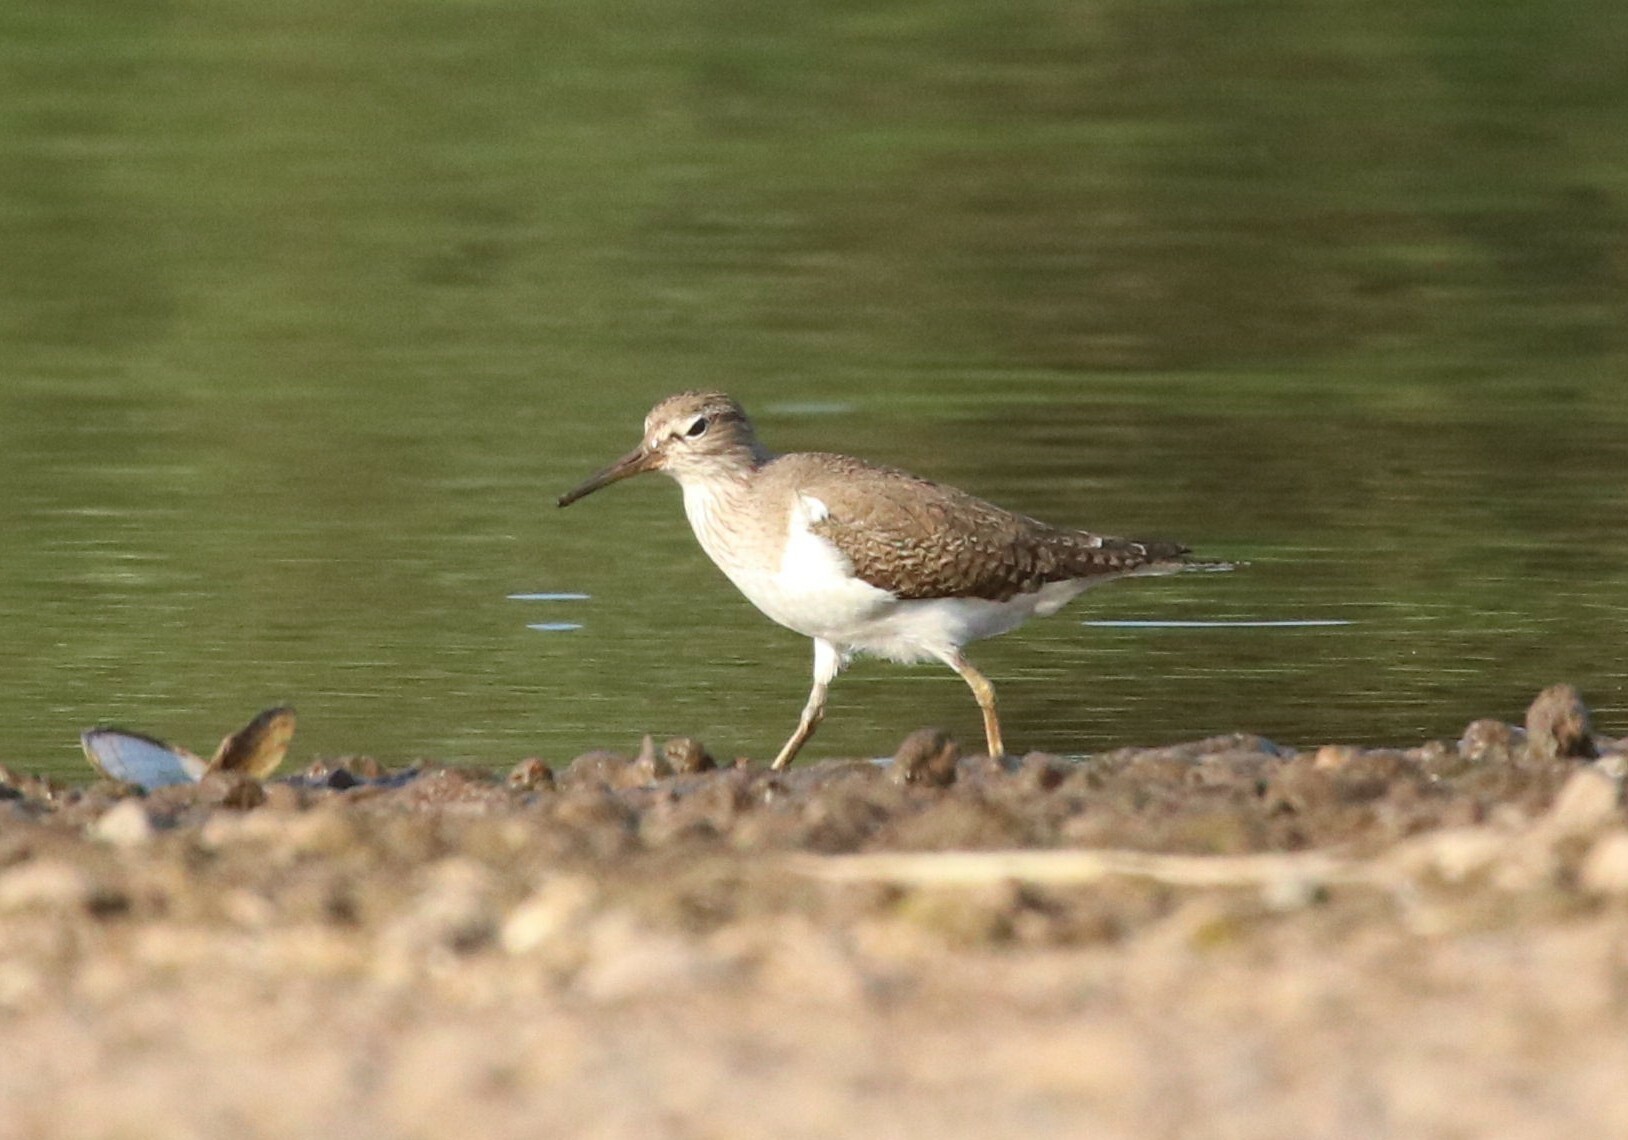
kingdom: Animalia
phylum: Chordata
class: Aves
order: Charadriiformes
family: Scolopacidae
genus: Actitis
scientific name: Actitis hypoleucos
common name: Common sandpiper
